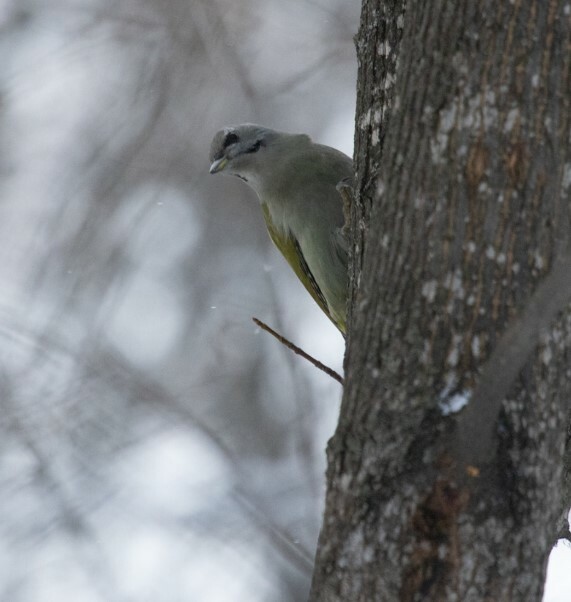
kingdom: Animalia
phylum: Chordata
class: Aves
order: Piciformes
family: Picidae
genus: Picus
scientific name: Picus canus
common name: Grey-headed woodpecker
